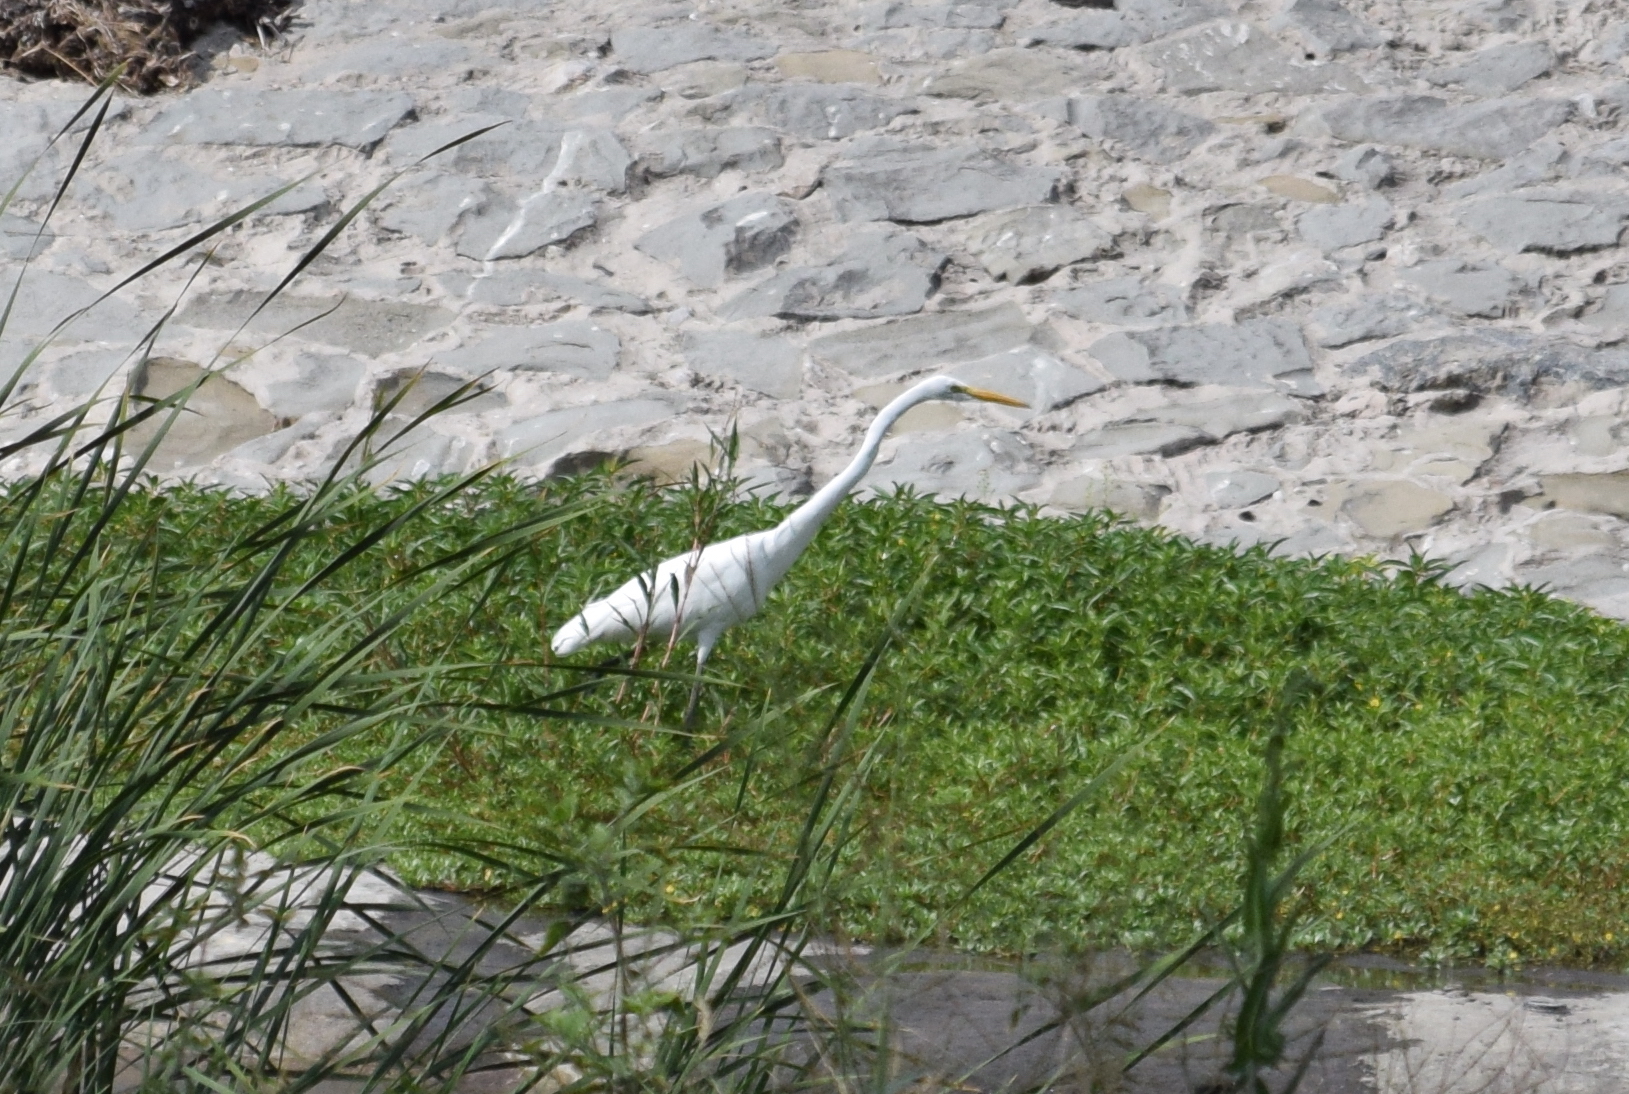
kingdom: Animalia
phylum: Chordata
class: Aves
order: Pelecaniformes
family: Ardeidae
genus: Ardea
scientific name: Ardea alba
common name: Great egret
